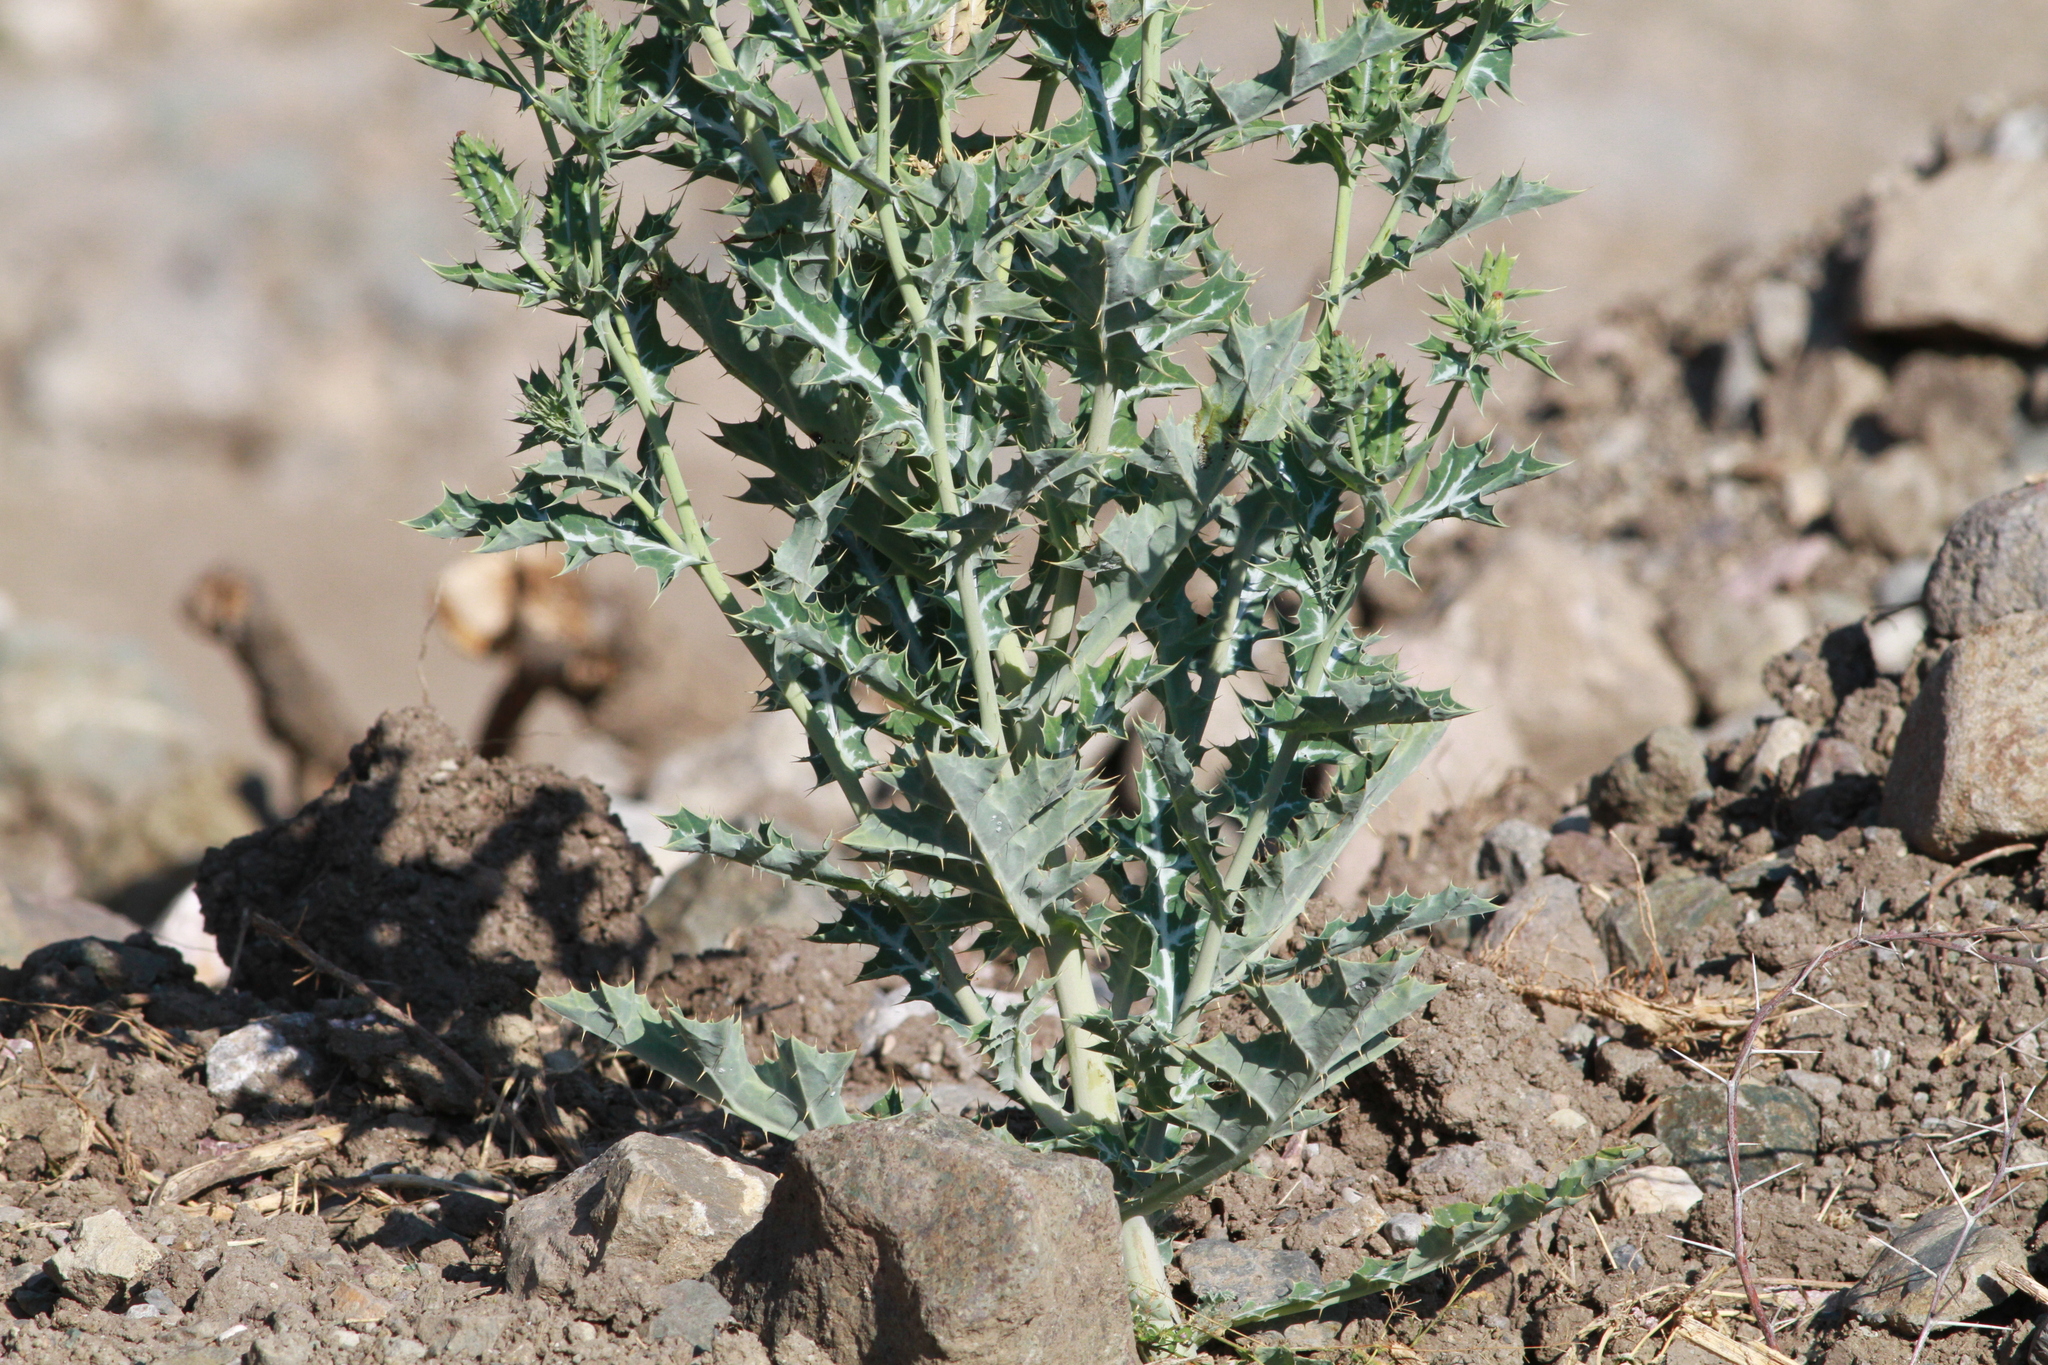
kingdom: Plantae
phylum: Tracheophyta
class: Magnoliopsida
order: Ranunculales
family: Papaveraceae
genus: Argemone
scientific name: Argemone mexicana
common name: Mexican poppy
